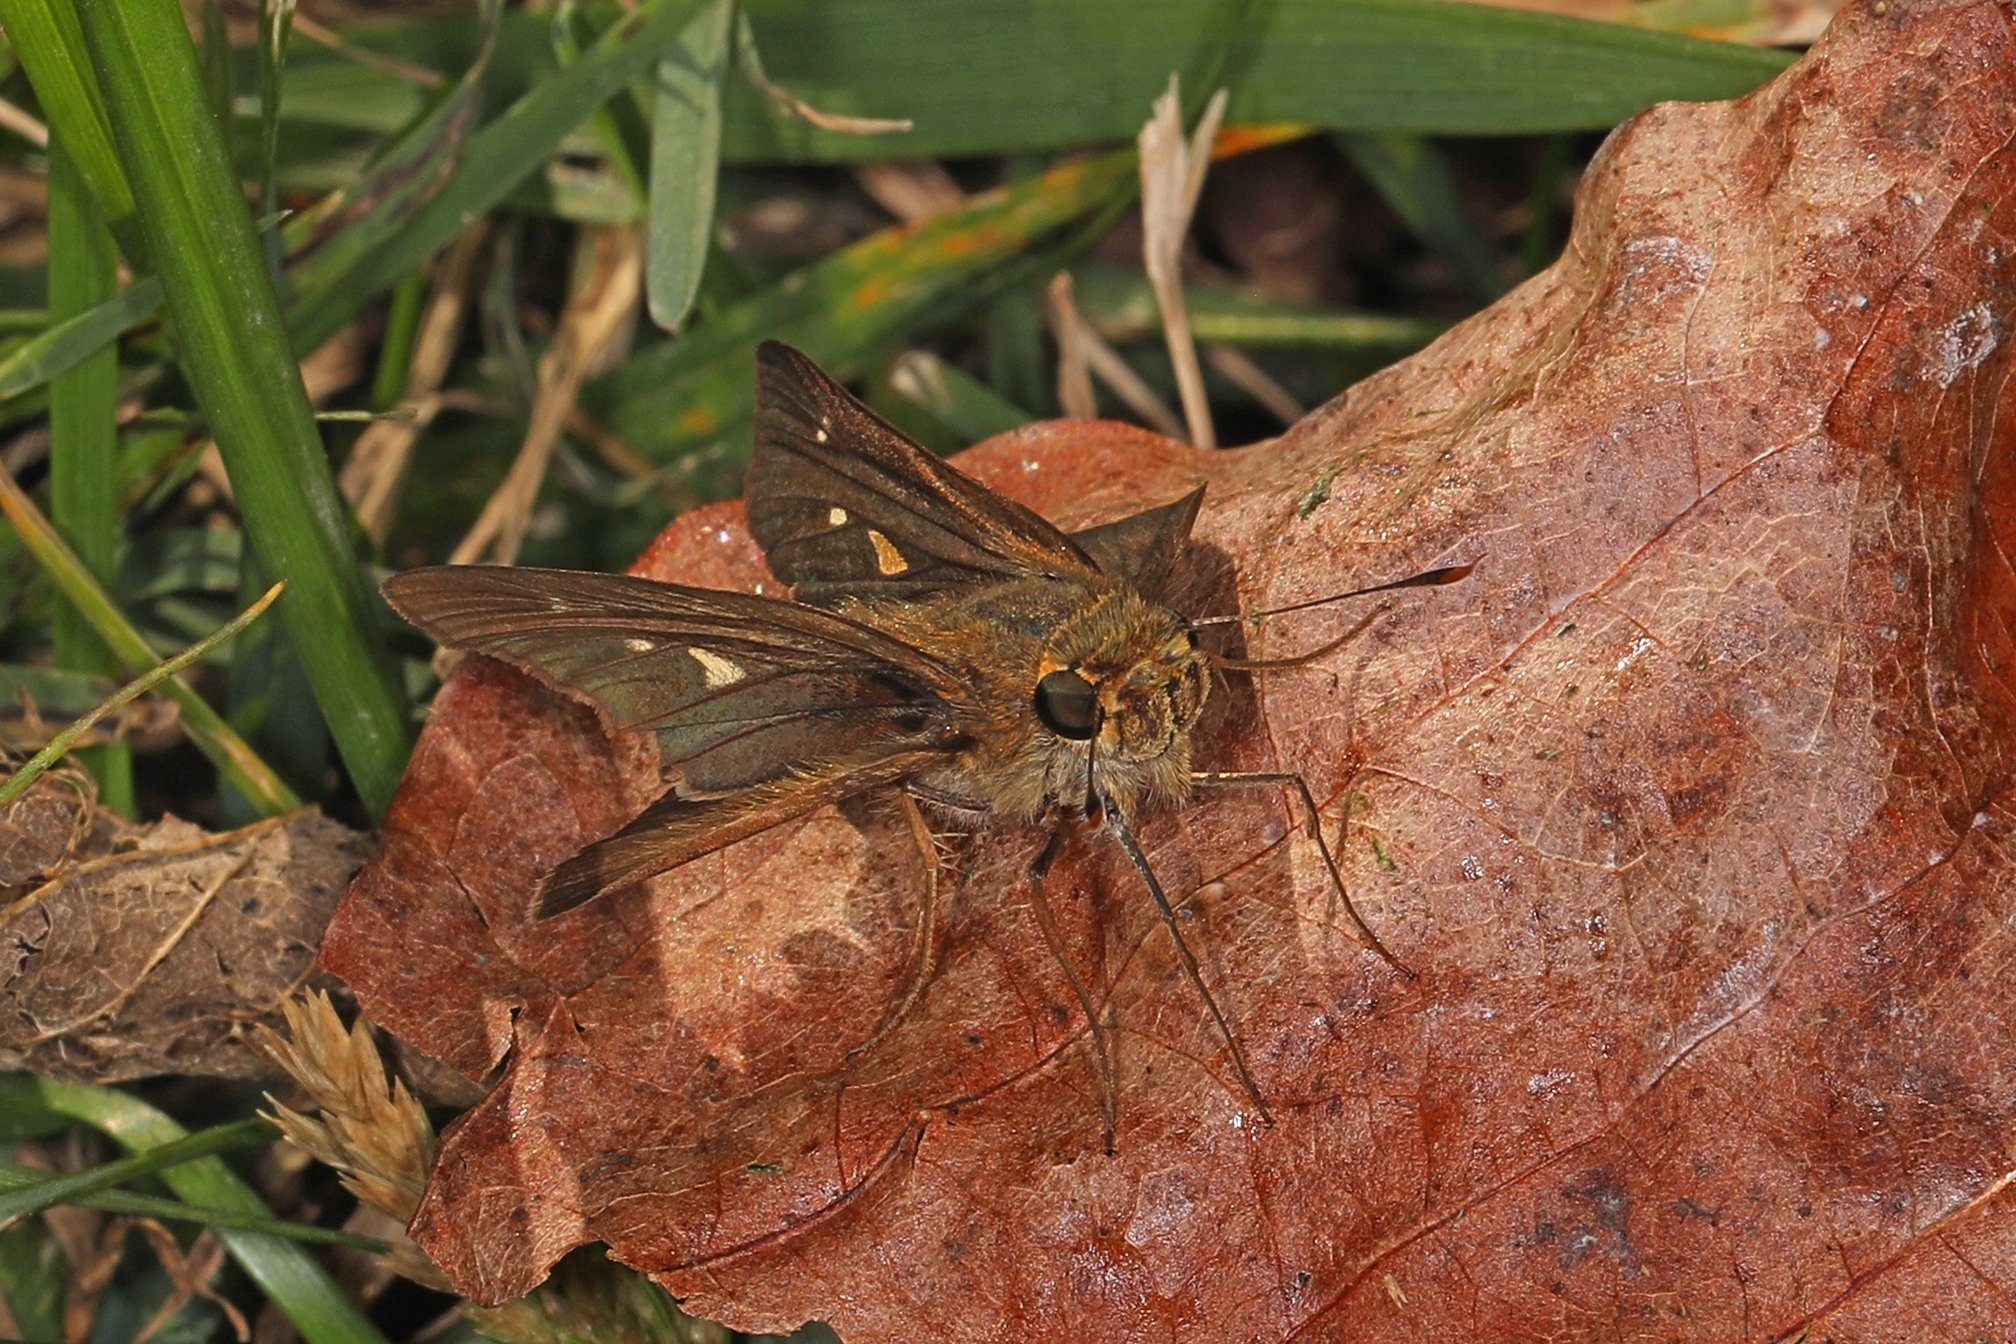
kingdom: Animalia
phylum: Arthropoda
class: Insecta
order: Lepidoptera
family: Hesperiidae
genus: Panoquina
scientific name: Panoquina ocola
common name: Ocola skipper
